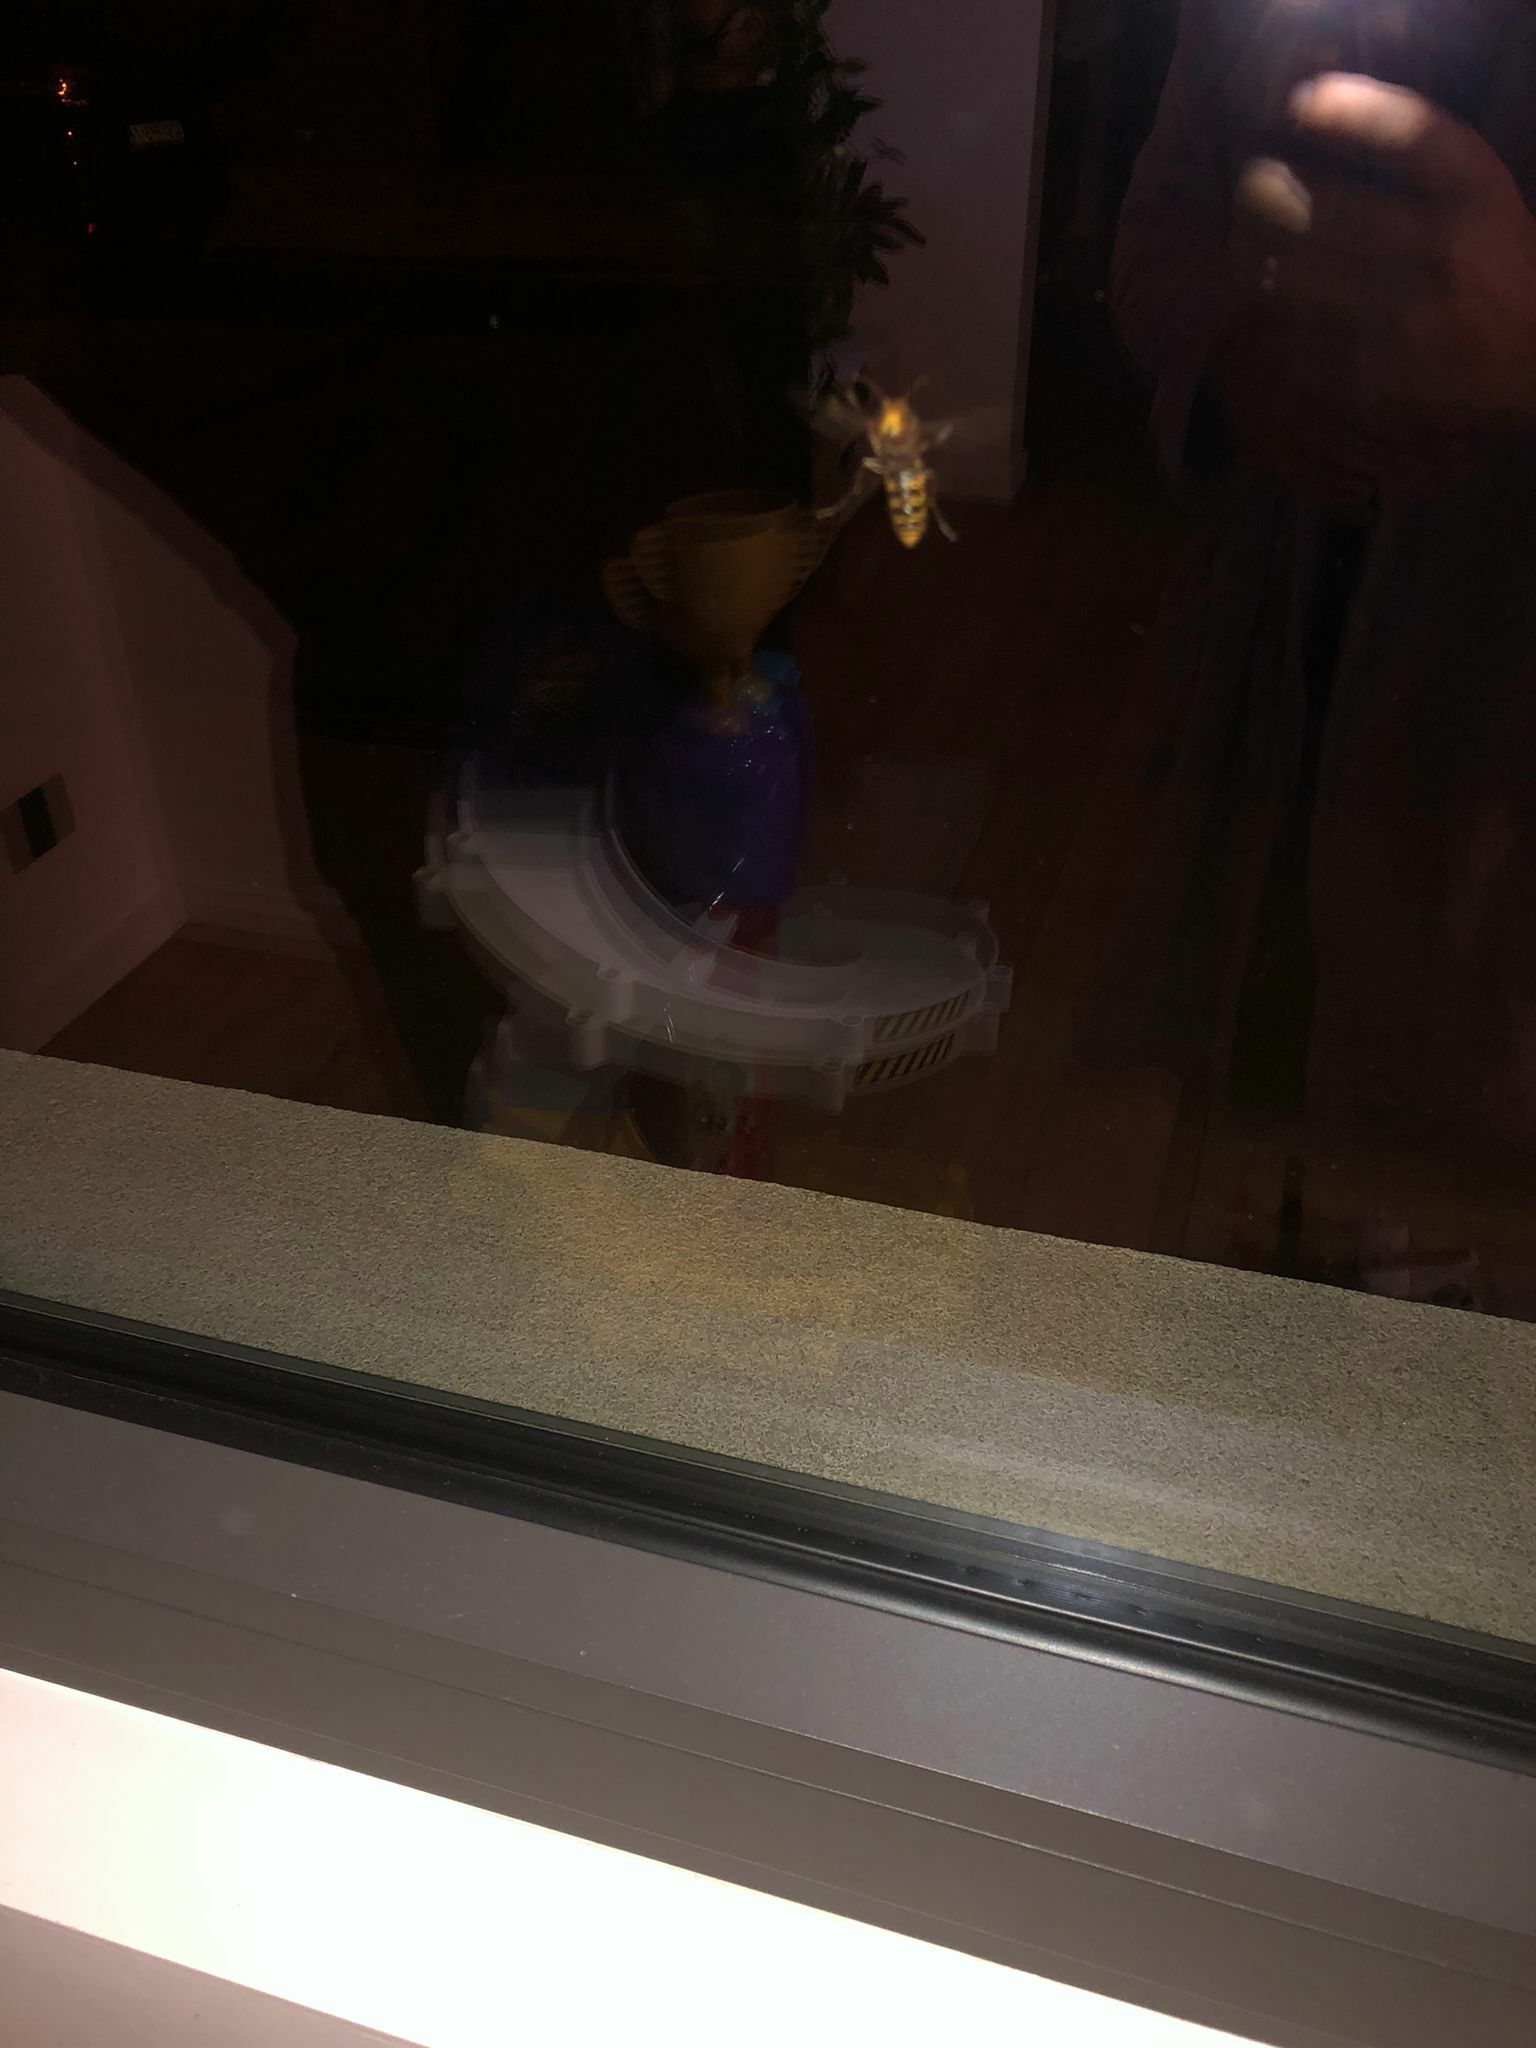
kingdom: Animalia
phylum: Arthropoda
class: Insecta
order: Hymenoptera
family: Vespidae
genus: Vespa
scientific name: Vespa crabro
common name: Hornet
